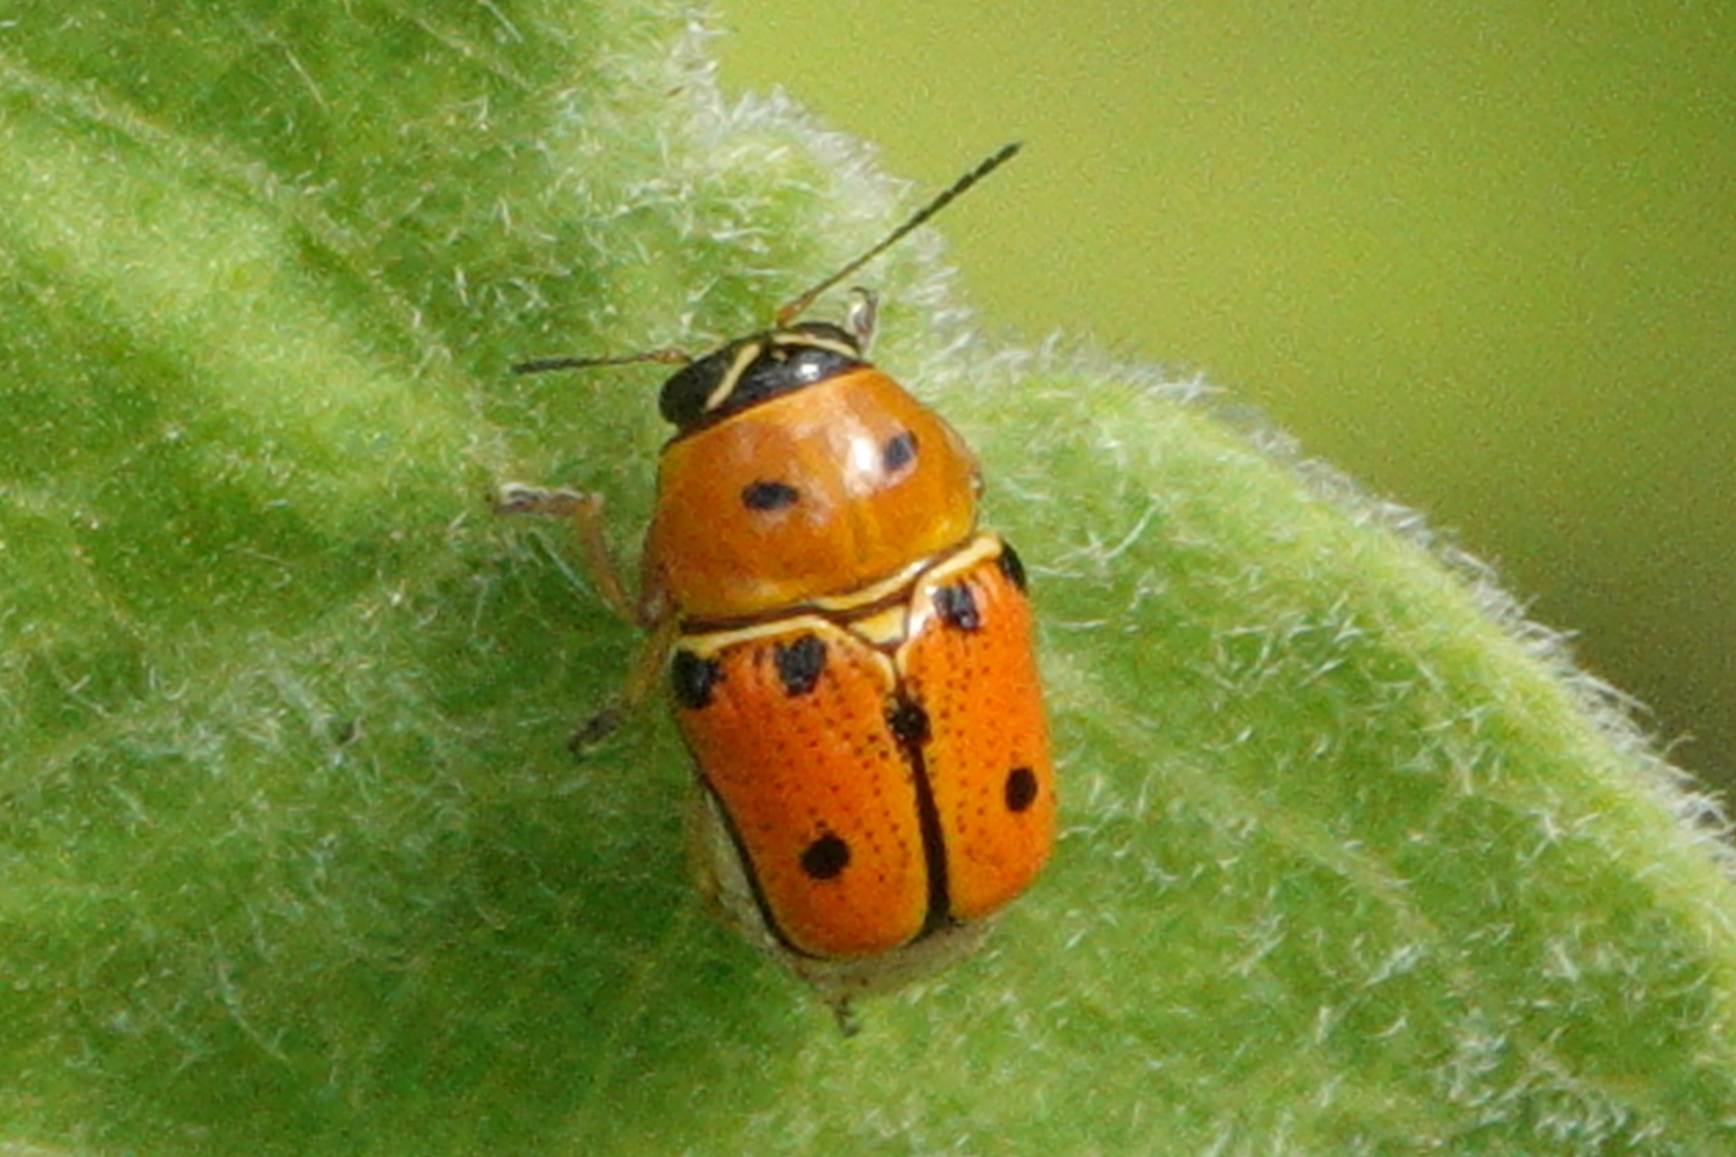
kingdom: Animalia
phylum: Arthropoda
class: Insecta
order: Coleoptera
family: Chrysomelidae
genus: Griburius
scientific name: Griburius larvatus
